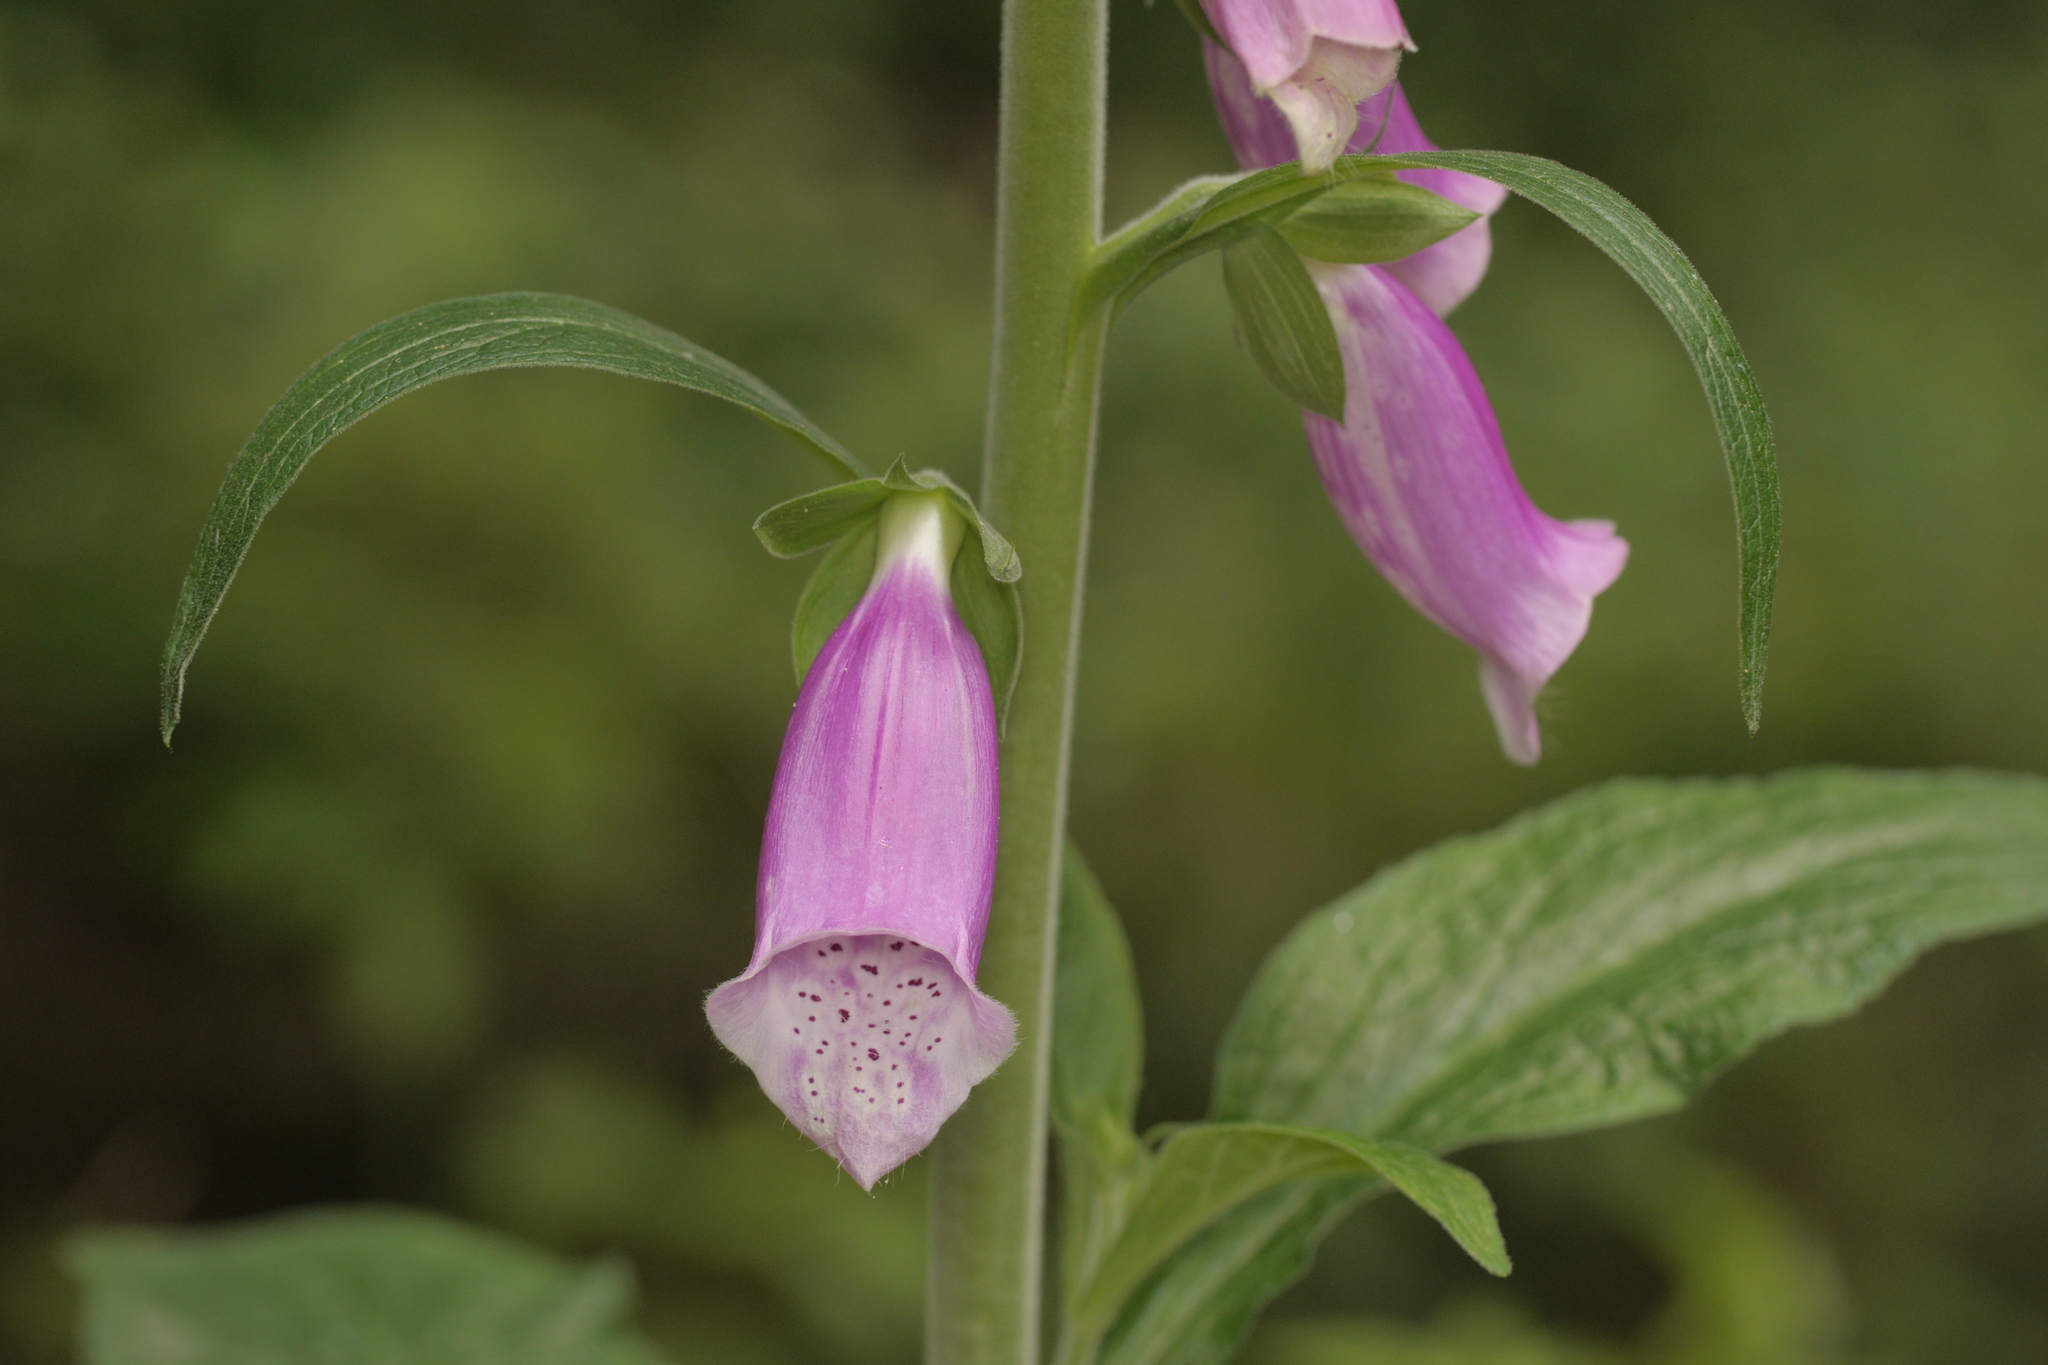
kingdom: Plantae
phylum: Tracheophyta
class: Magnoliopsida
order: Lamiales
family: Plantaginaceae
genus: Digitalis
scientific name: Digitalis purpurea
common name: Foxglove
